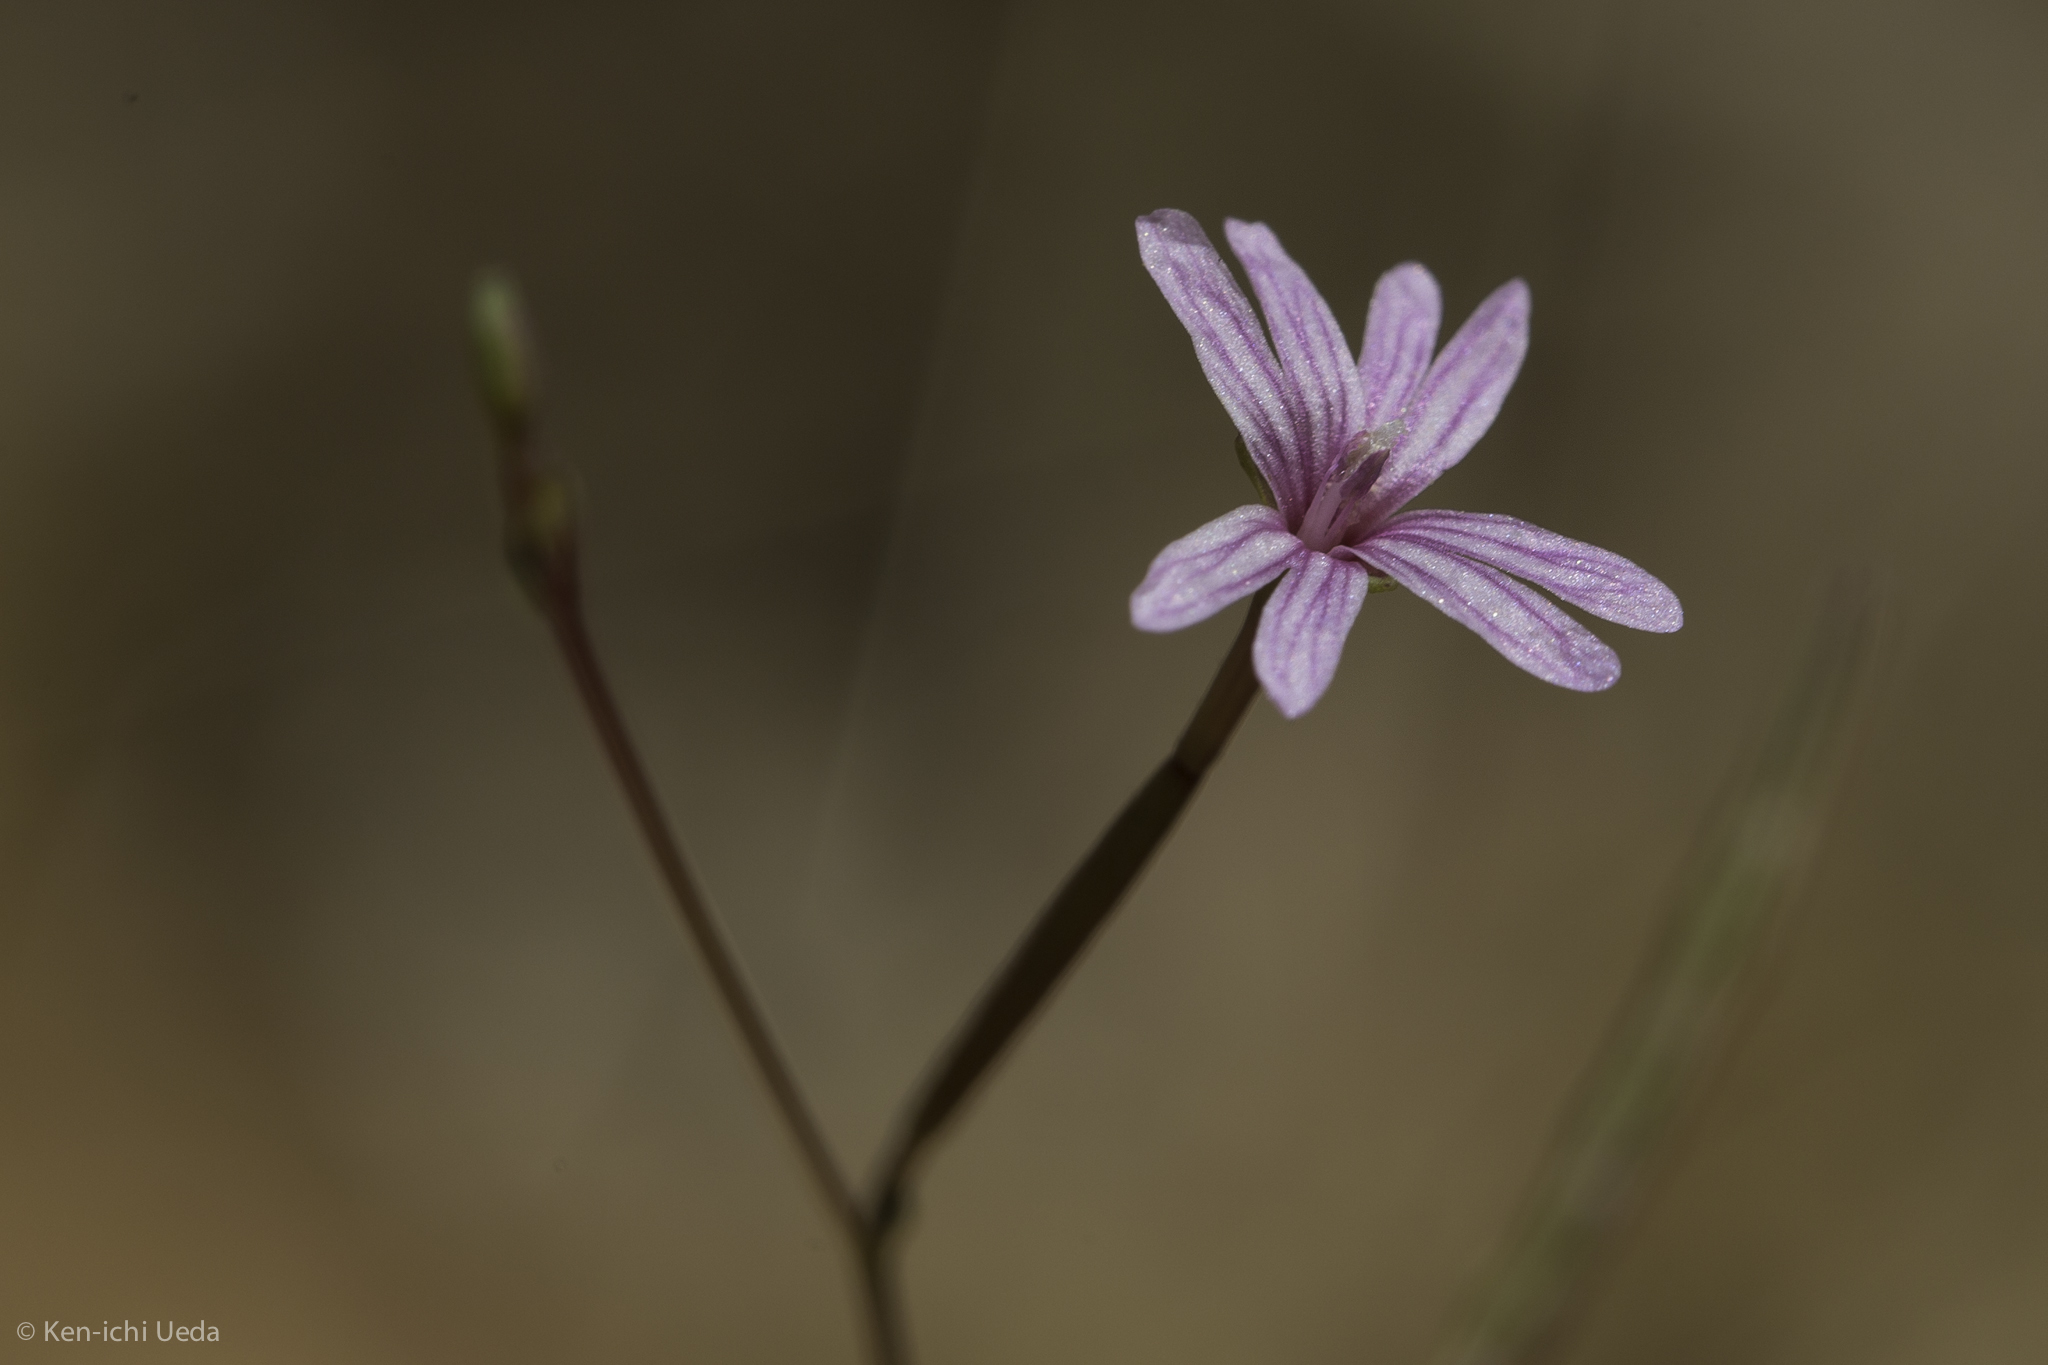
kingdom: Plantae
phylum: Tracheophyta
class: Magnoliopsida
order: Myrtales
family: Onagraceae
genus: Epilobium
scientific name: Epilobium brachycarpum
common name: Annual willowherb
